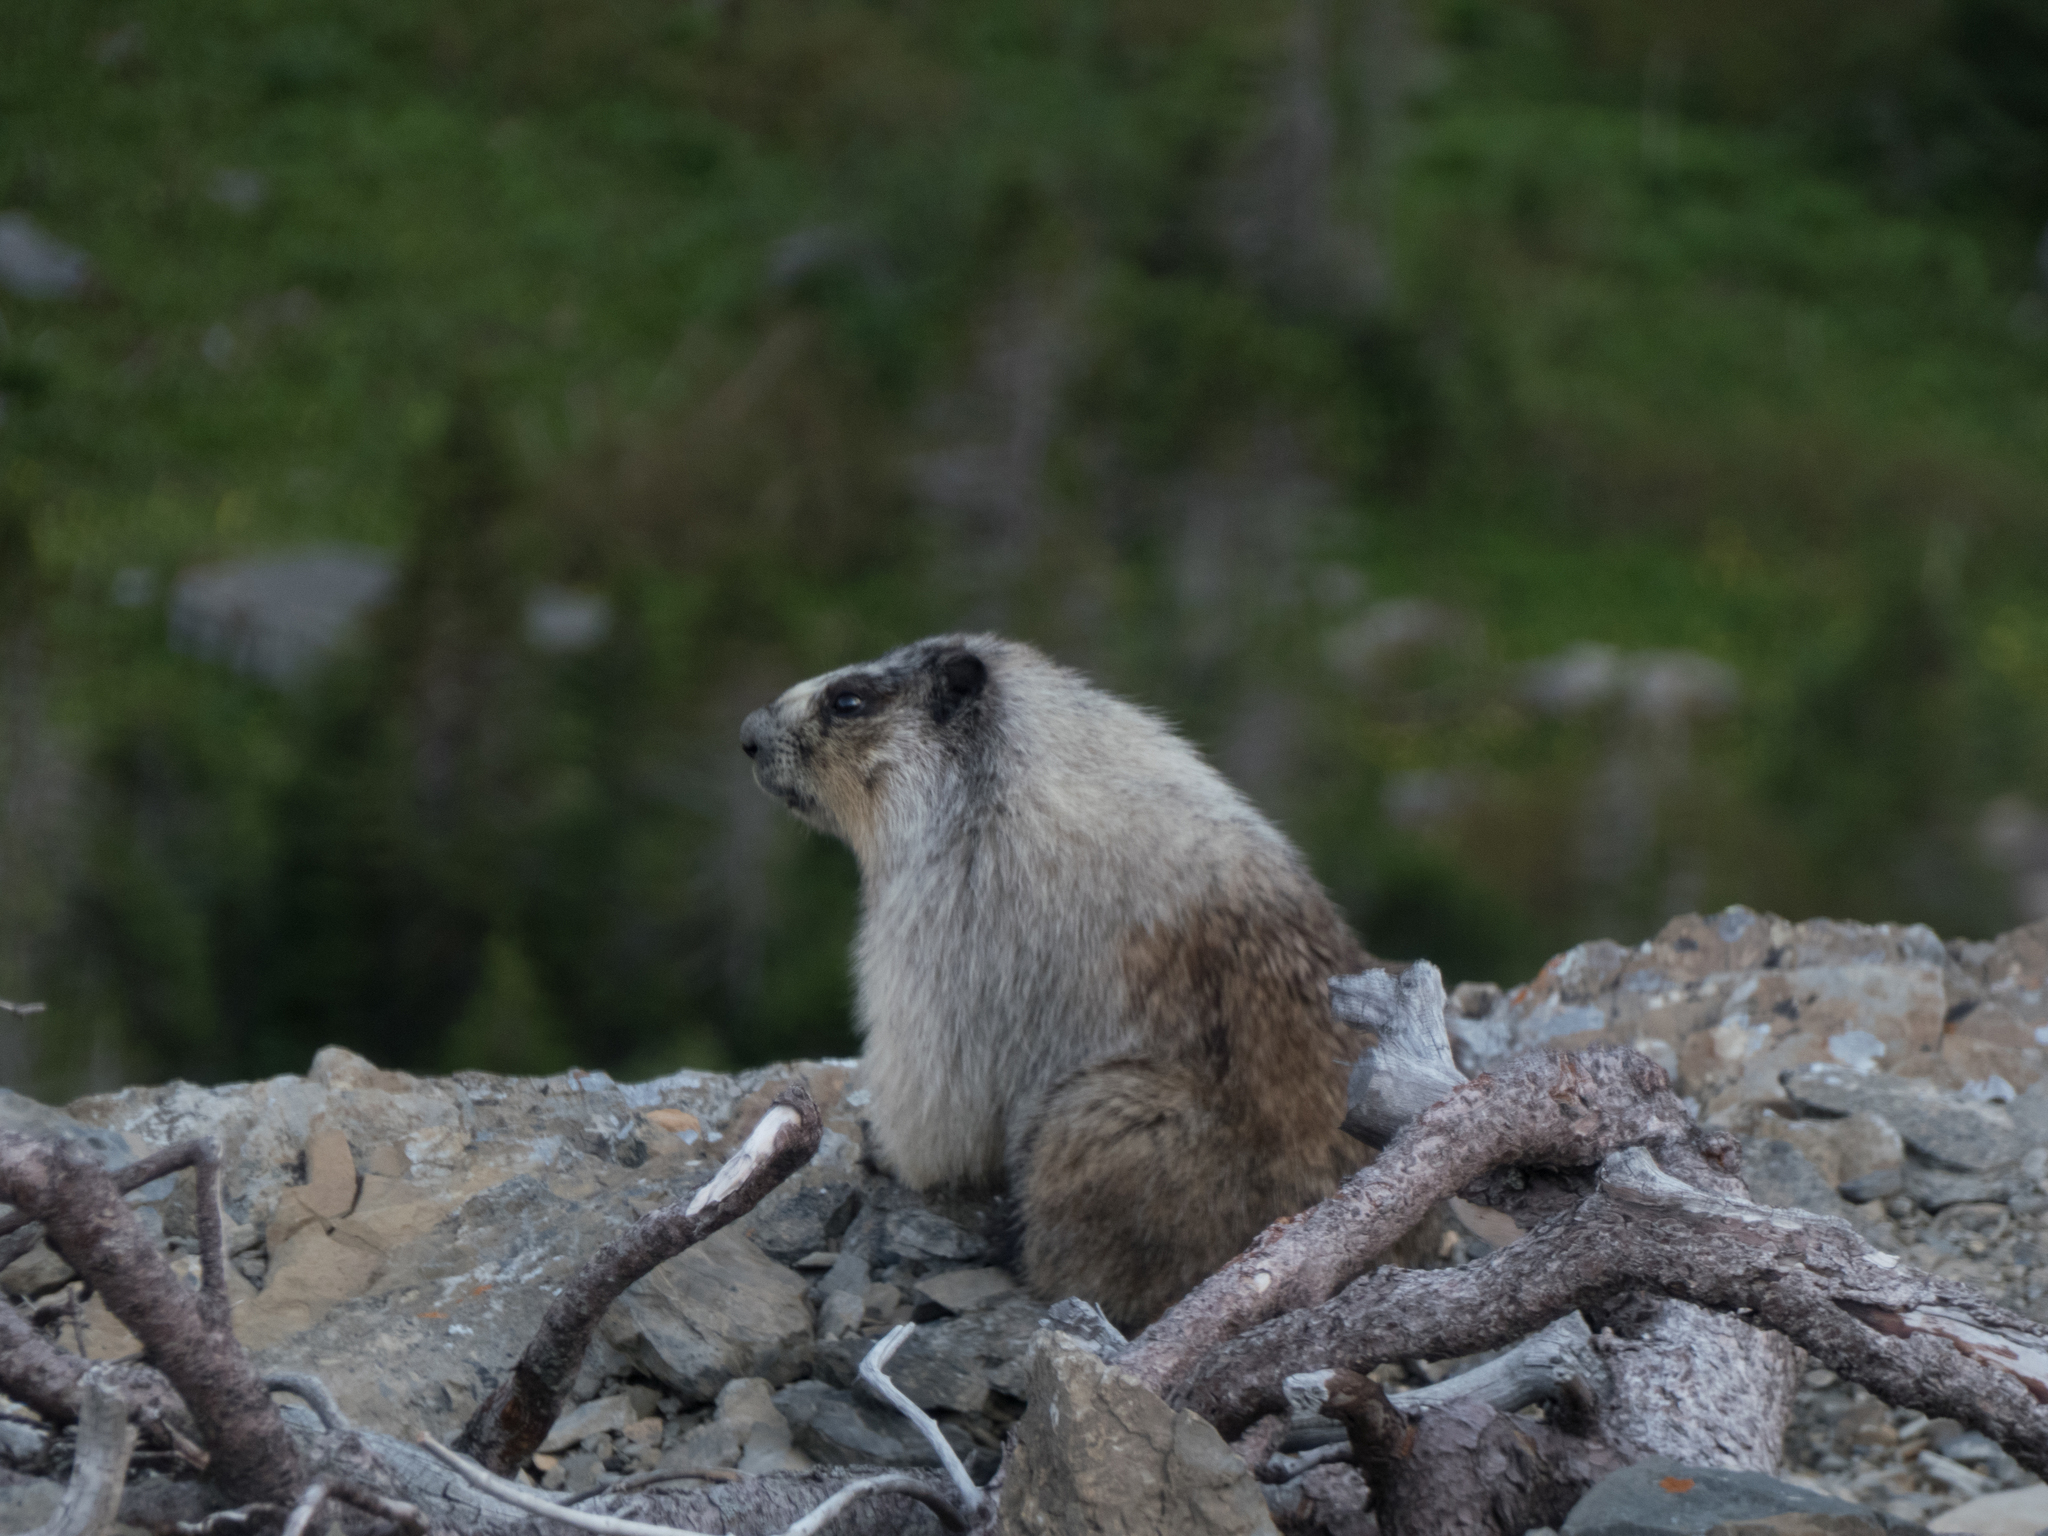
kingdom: Animalia
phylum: Chordata
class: Mammalia
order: Rodentia
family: Sciuridae
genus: Marmota
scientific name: Marmota caligata
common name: Hoary marmot
